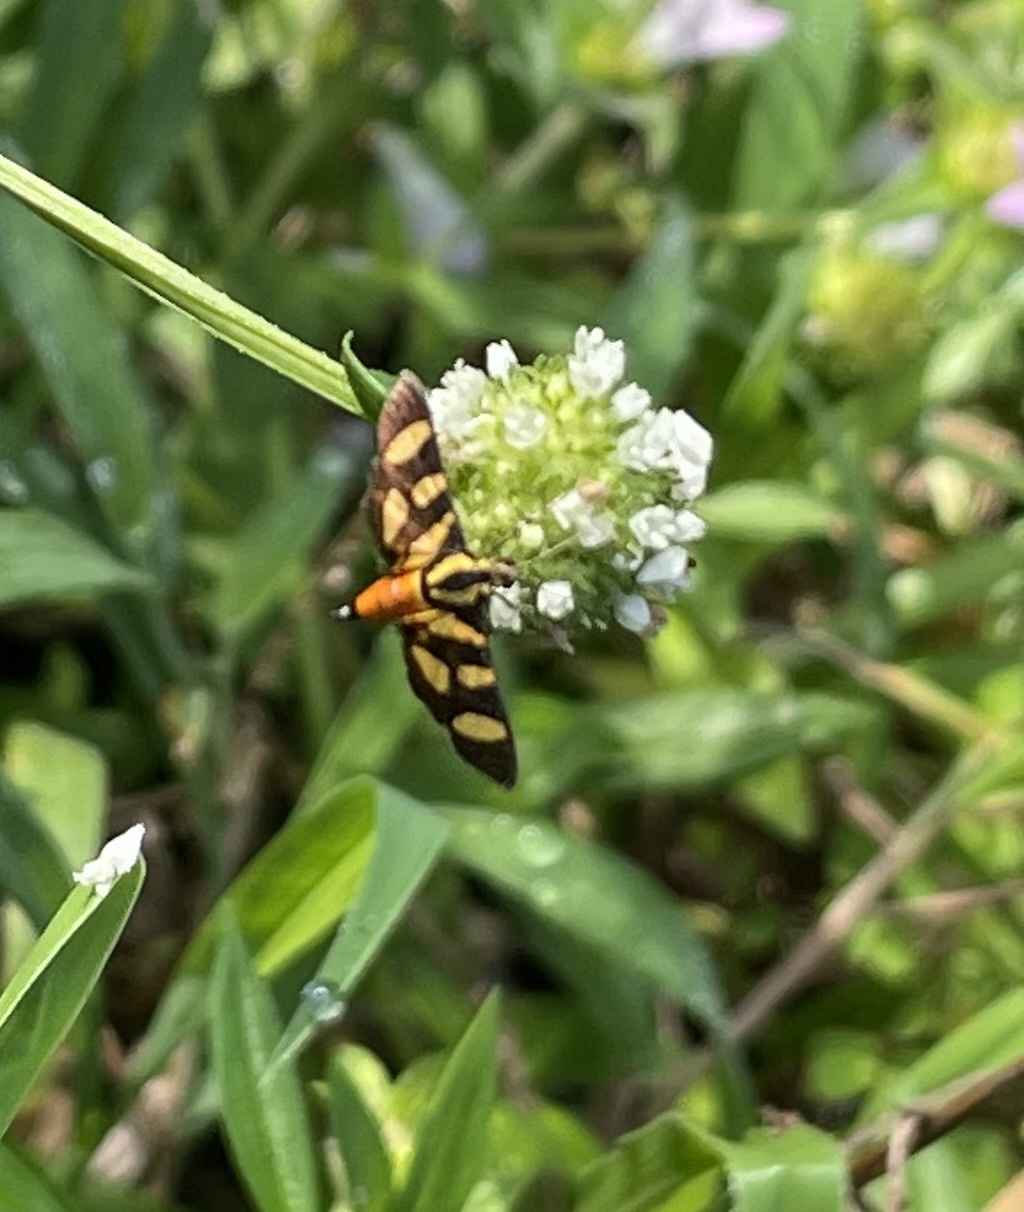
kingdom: Animalia
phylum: Arthropoda
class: Insecta
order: Lepidoptera
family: Crambidae
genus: Syngamia
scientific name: Syngamia florella
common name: Orange-spotted flower moth
